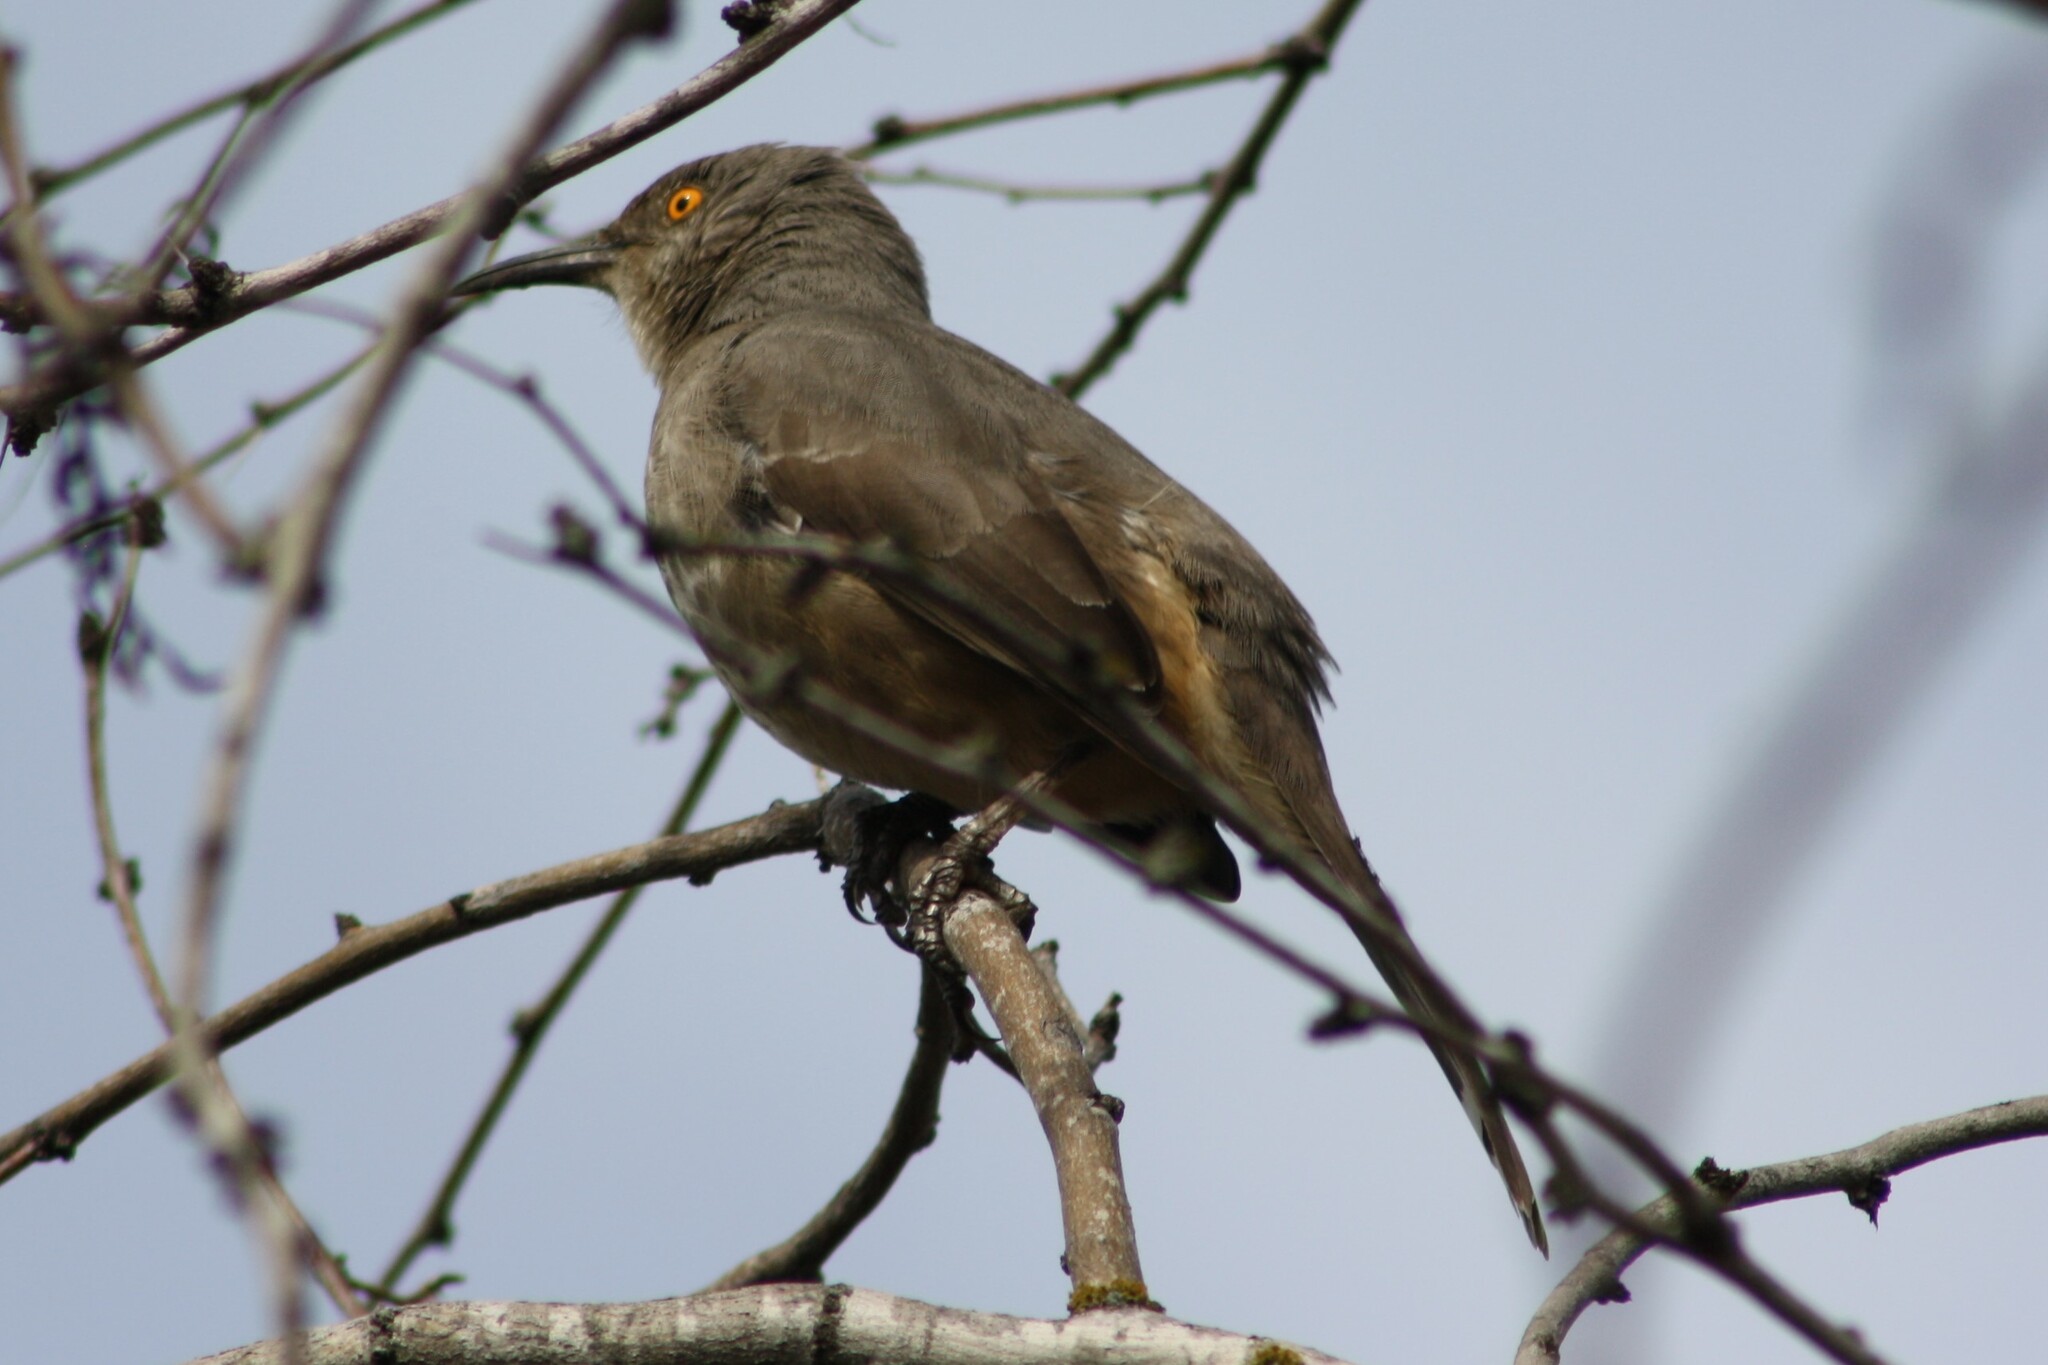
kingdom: Animalia
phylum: Chordata
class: Aves
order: Passeriformes
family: Mimidae
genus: Toxostoma
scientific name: Toxostoma curvirostre
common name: Curve-billed thrasher
